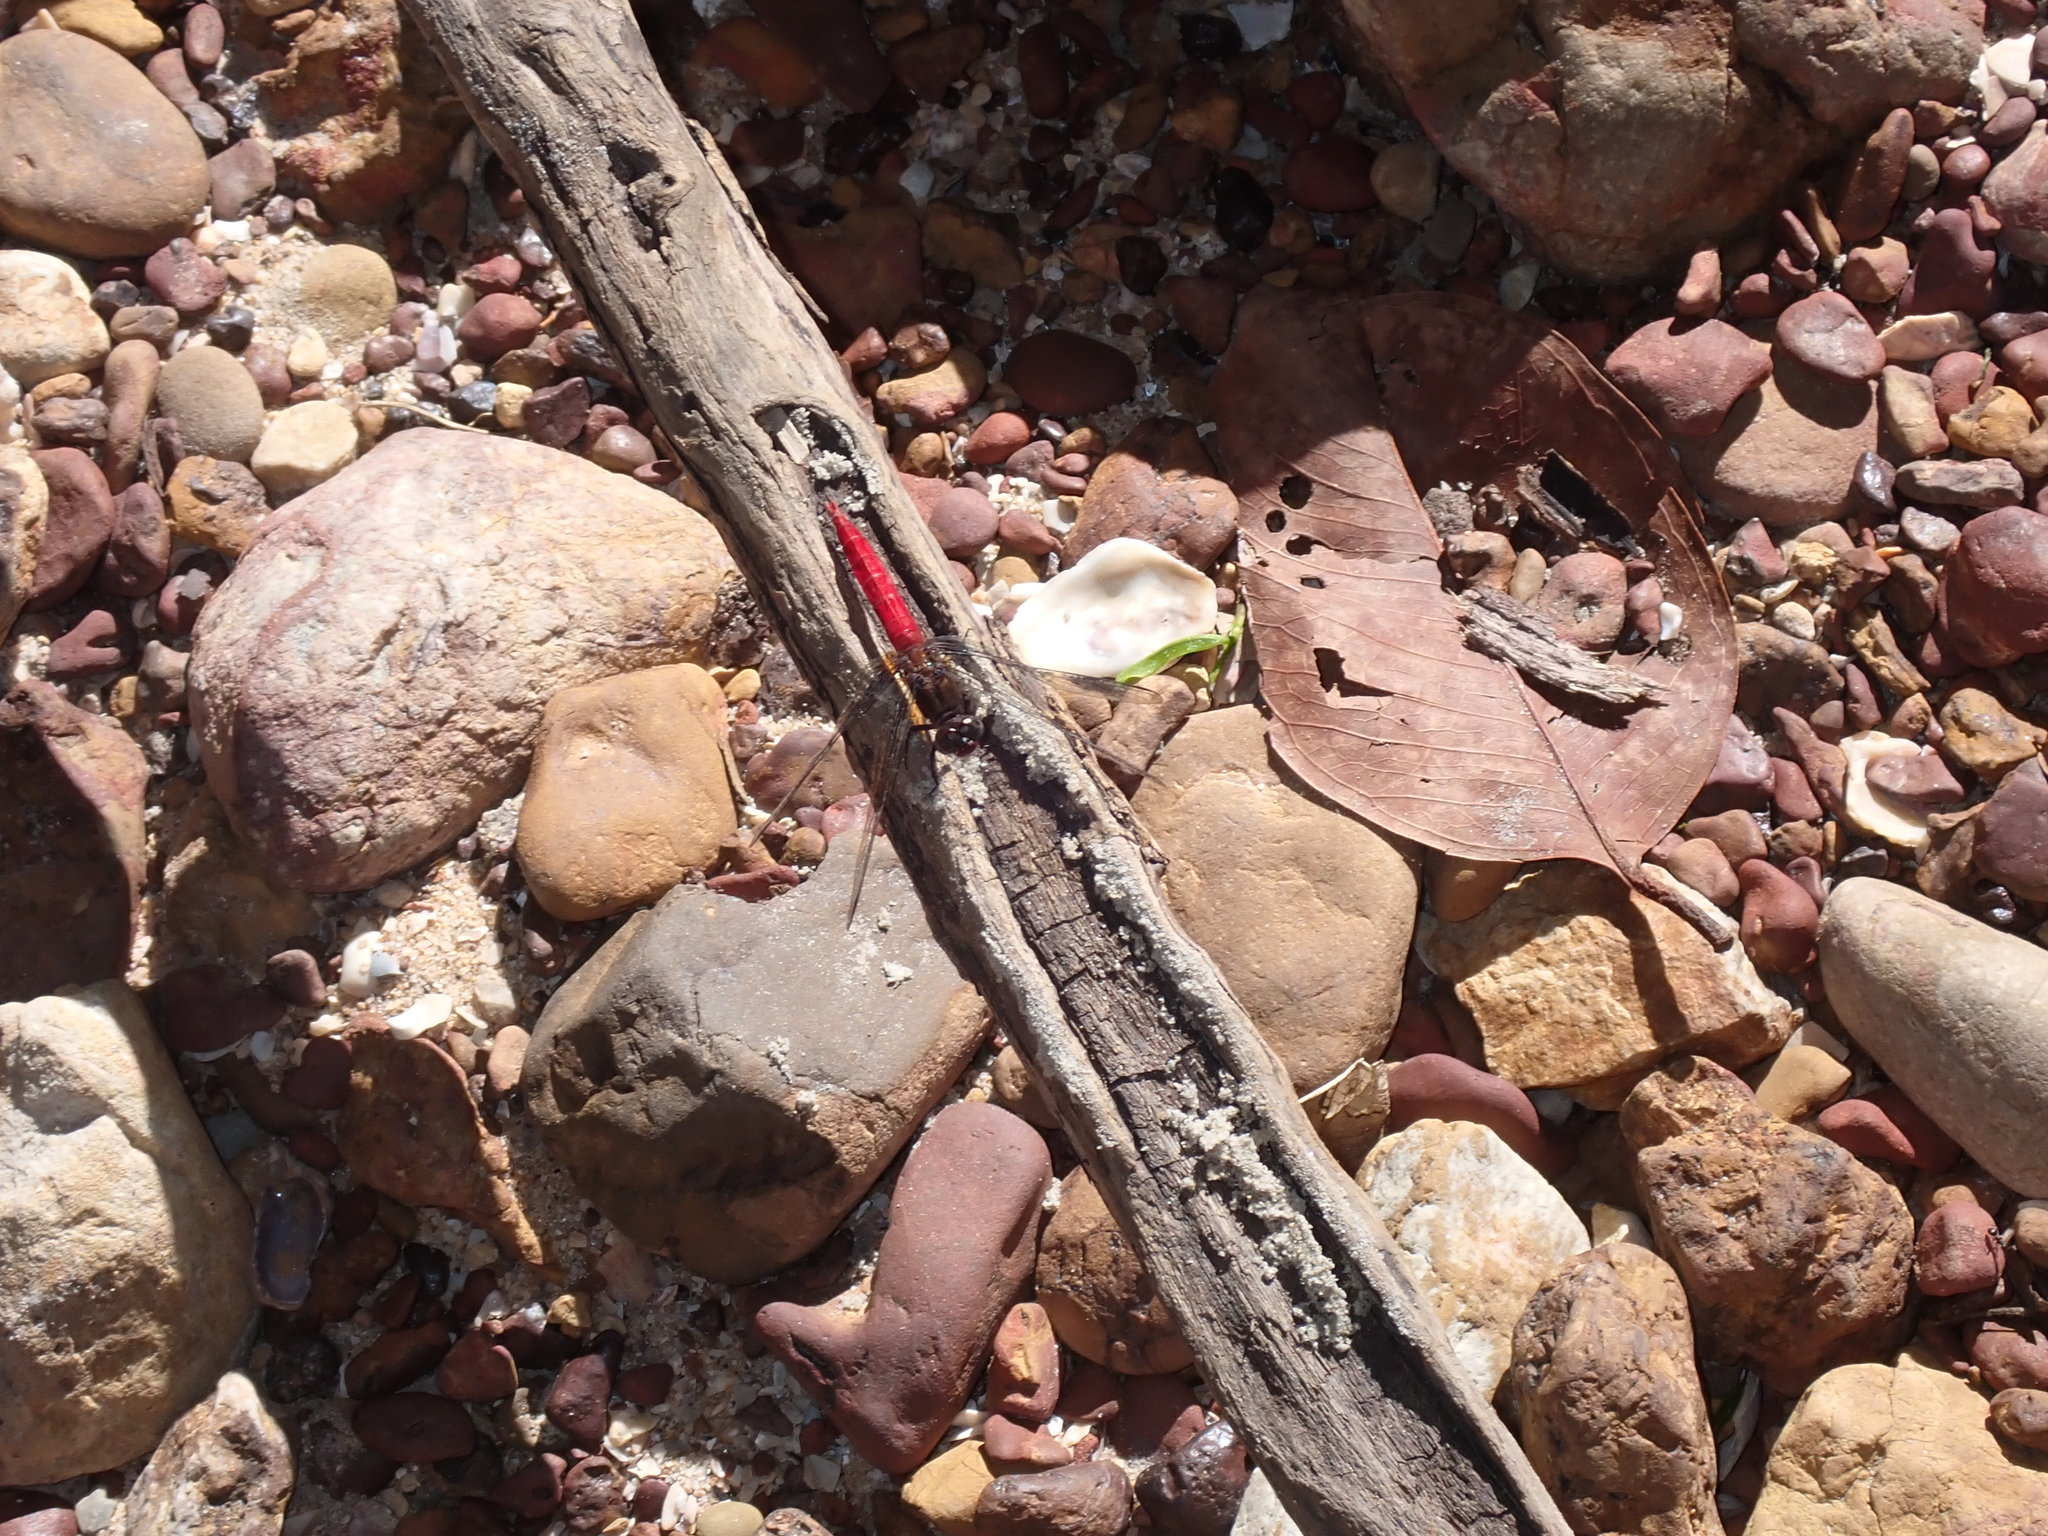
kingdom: Animalia
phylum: Arthropoda
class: Insecta
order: Odonata
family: Libellulidae
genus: Orthetrum
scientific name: Orthetrum chrysis
